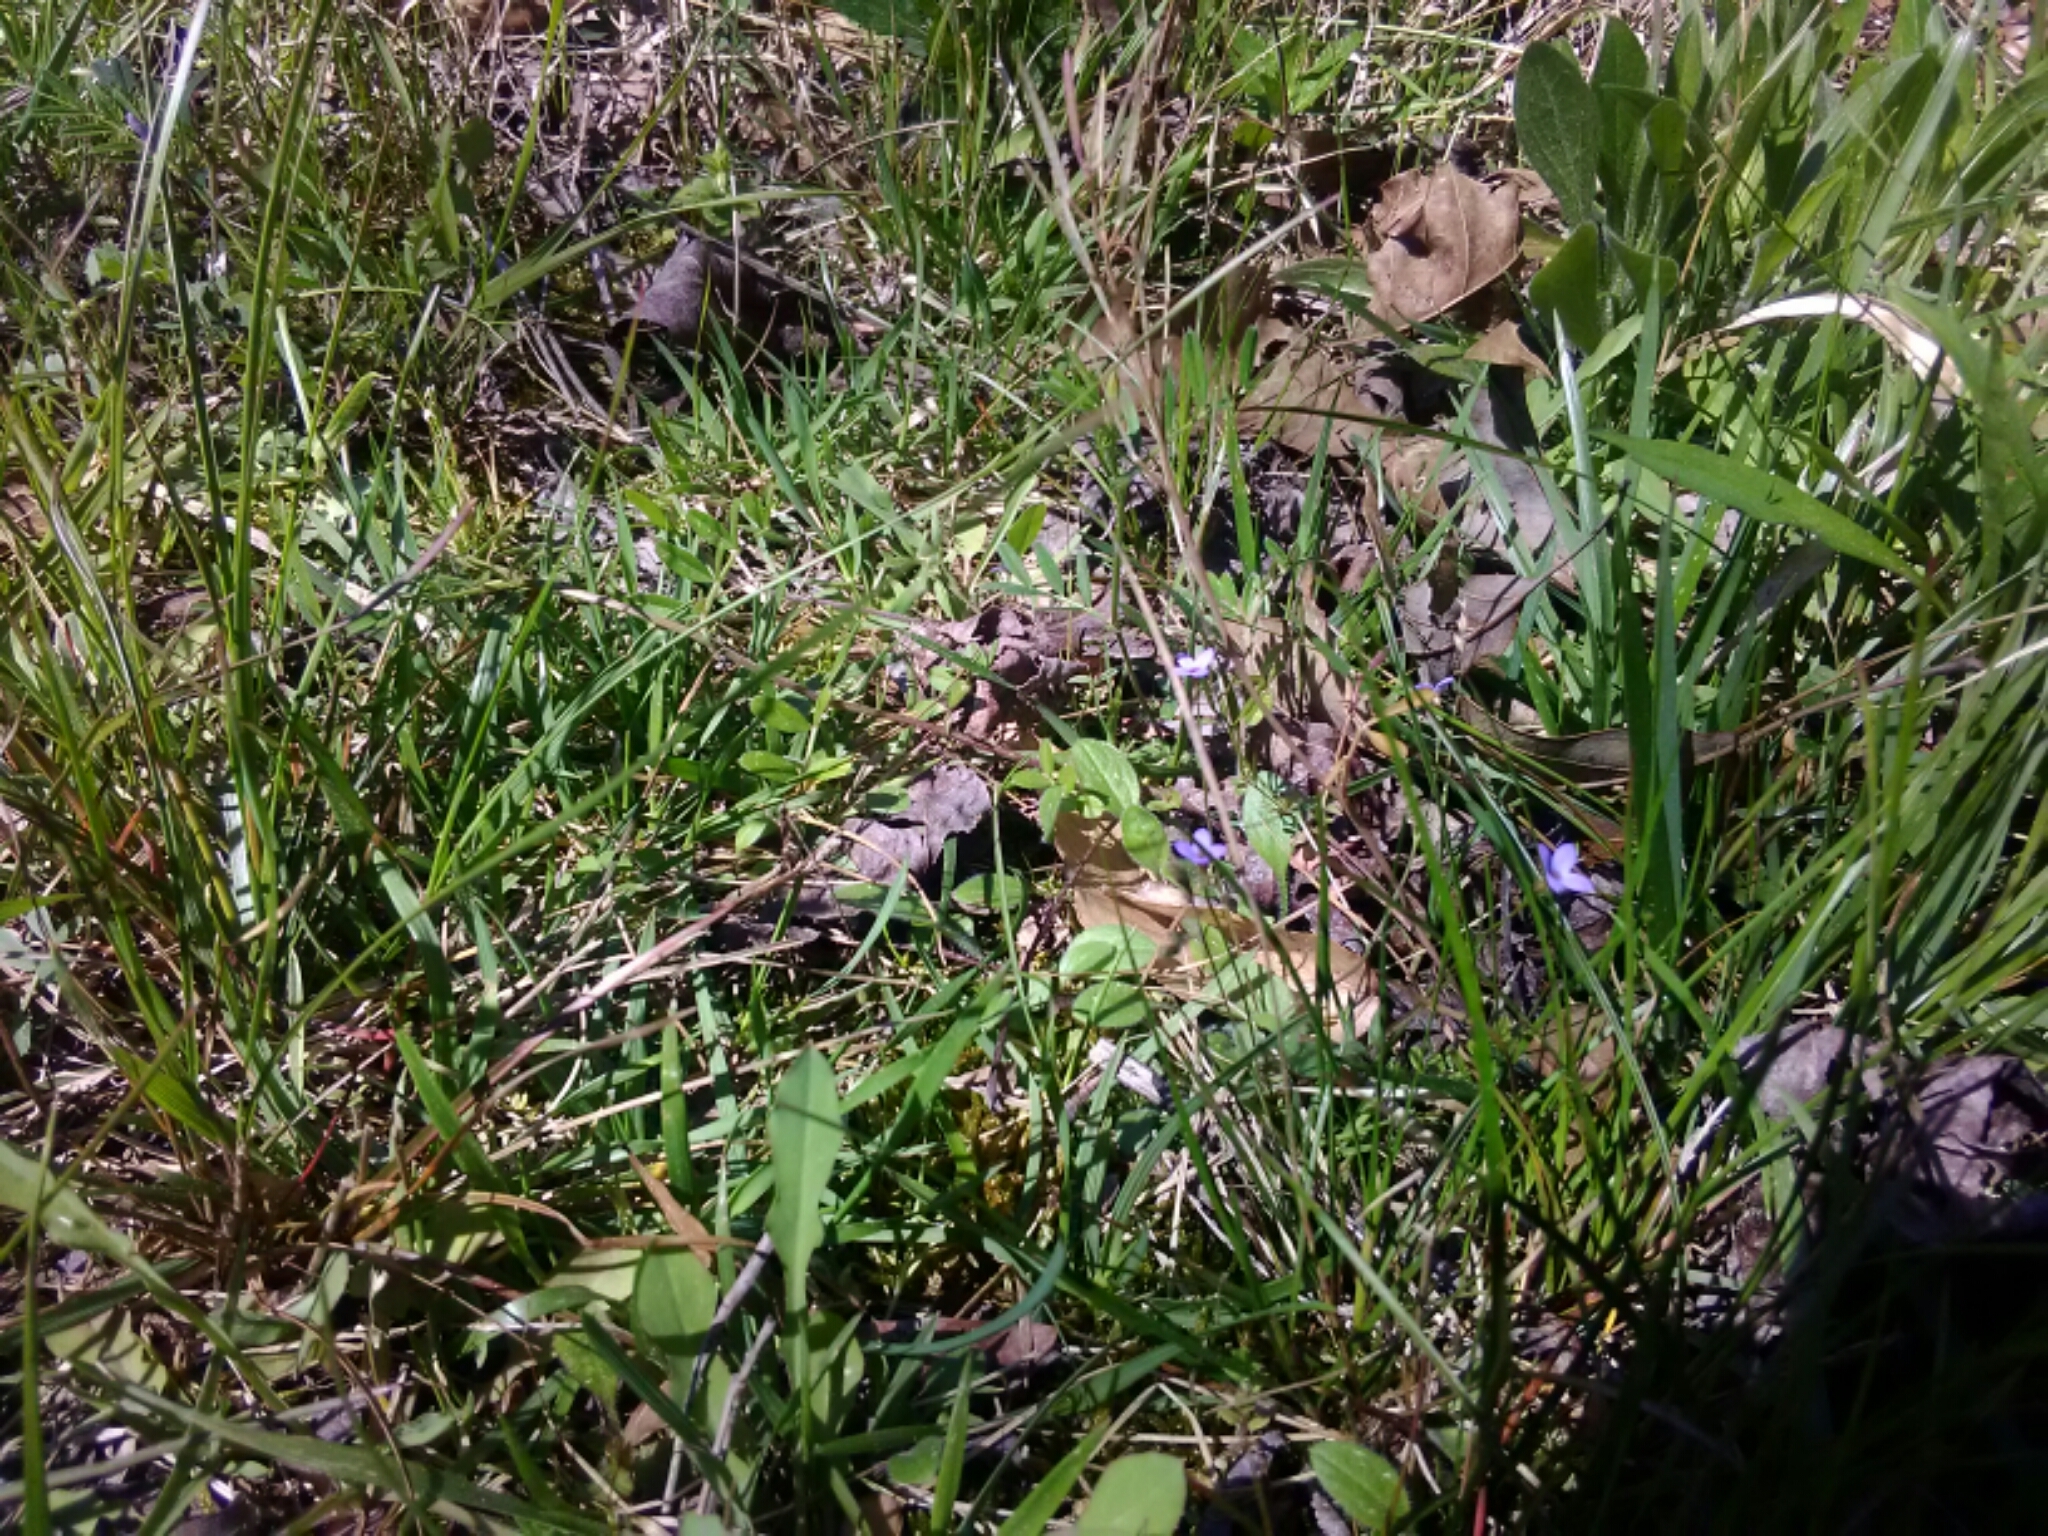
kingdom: Plantae
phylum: Tracheophyta
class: Magnoliopsida
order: Gentianales
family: Rubiaceae
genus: Houstonia
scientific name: Houstonia pusilla
